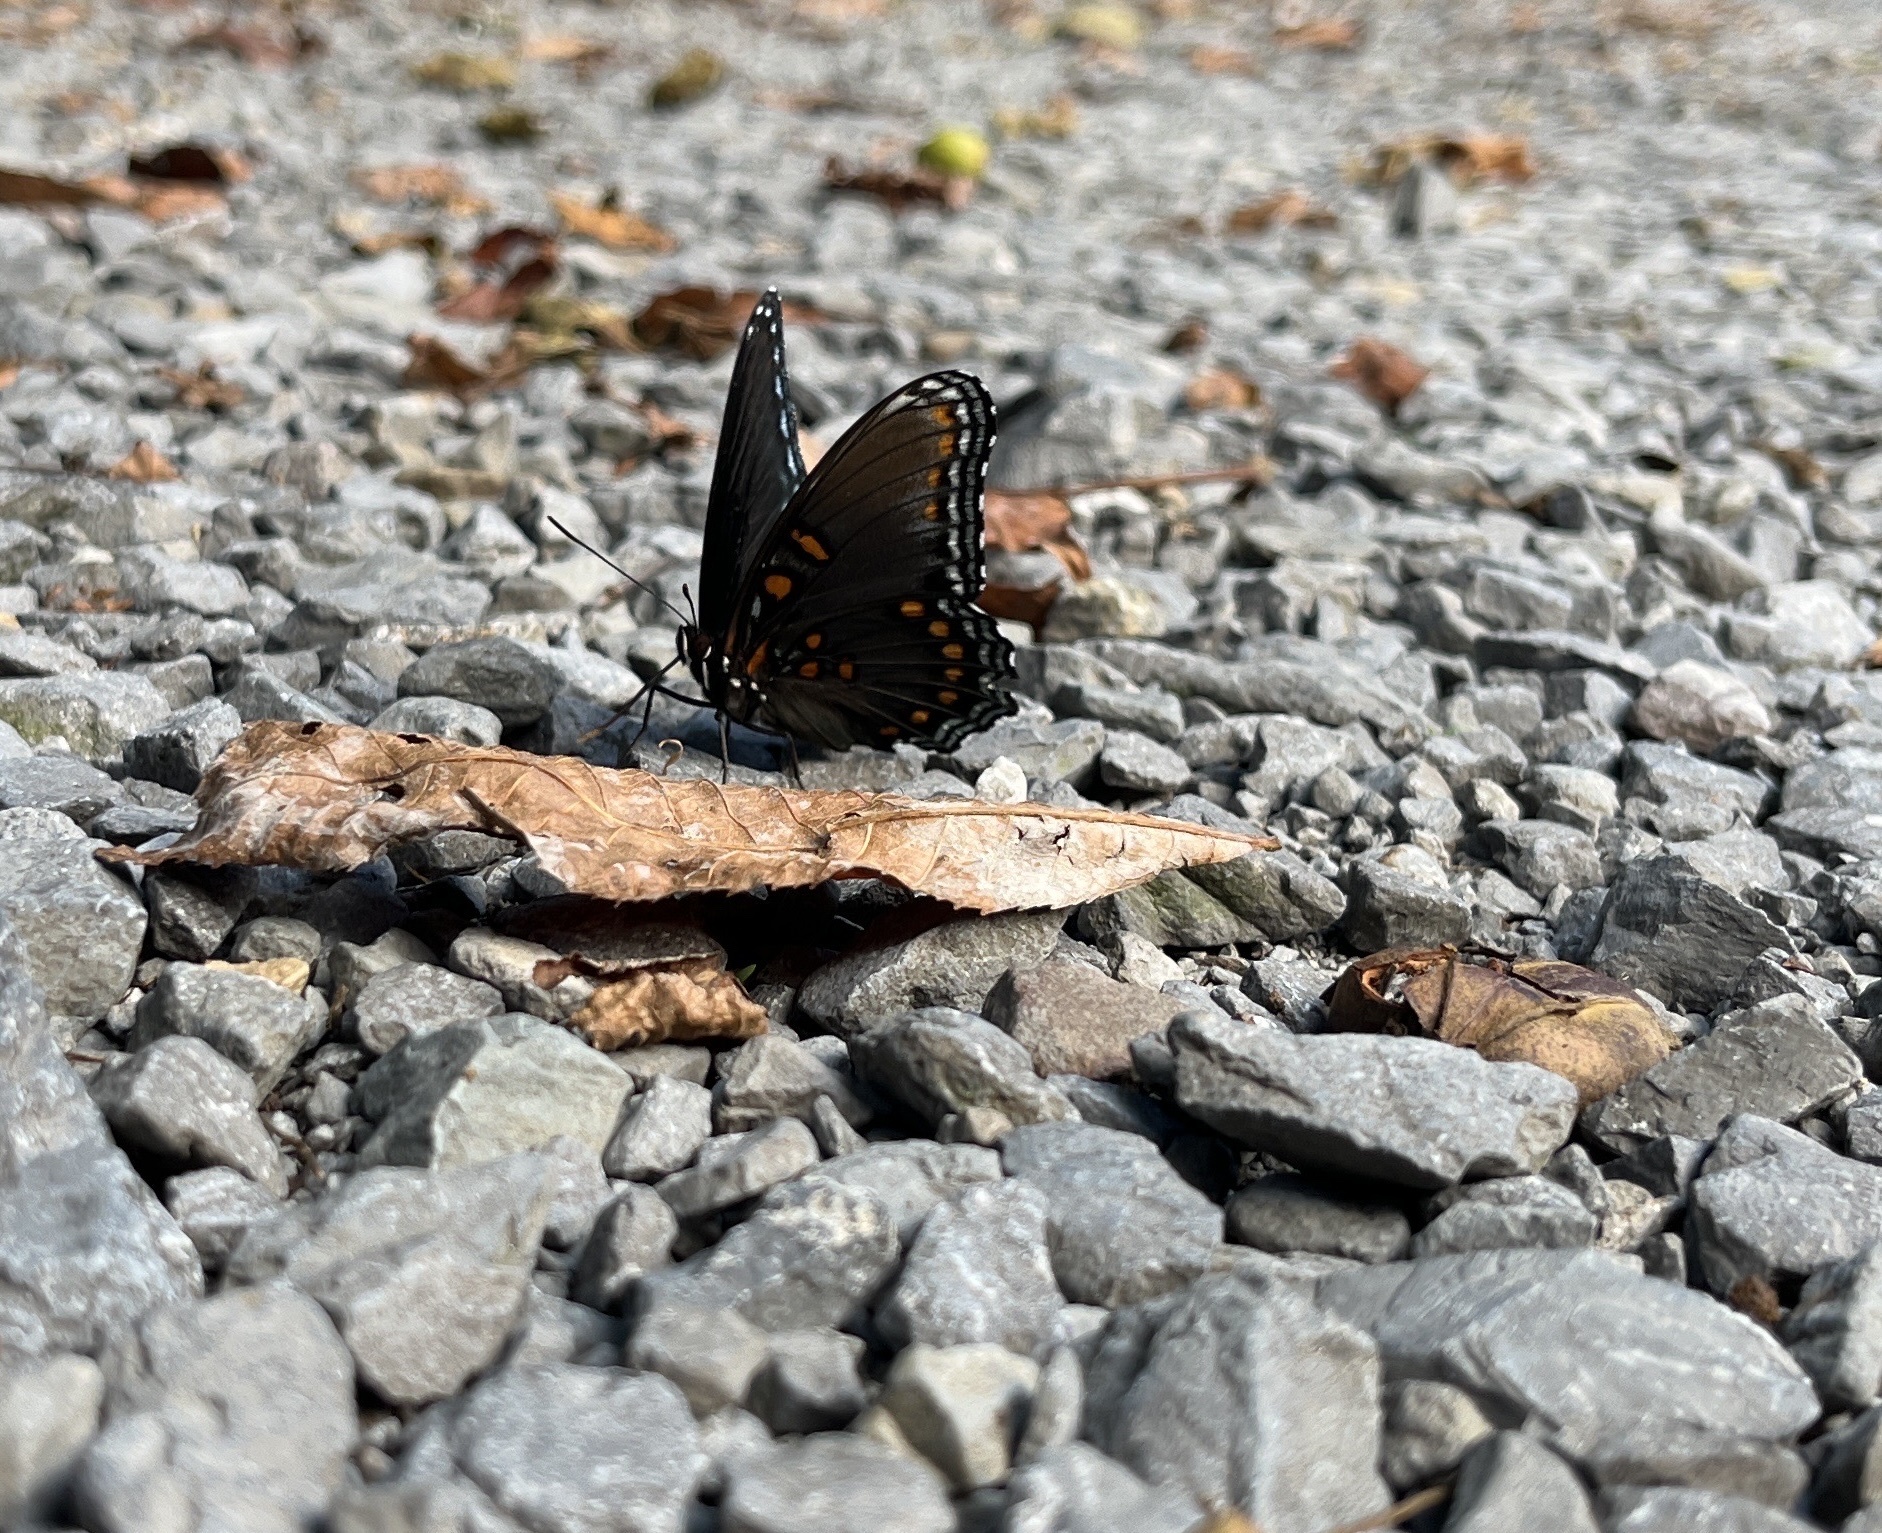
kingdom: Animalia
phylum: Arthropoda
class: Insecta
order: Lepidoptera
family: Nymphalidae
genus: Limenitis
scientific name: Limenitis astyanax
